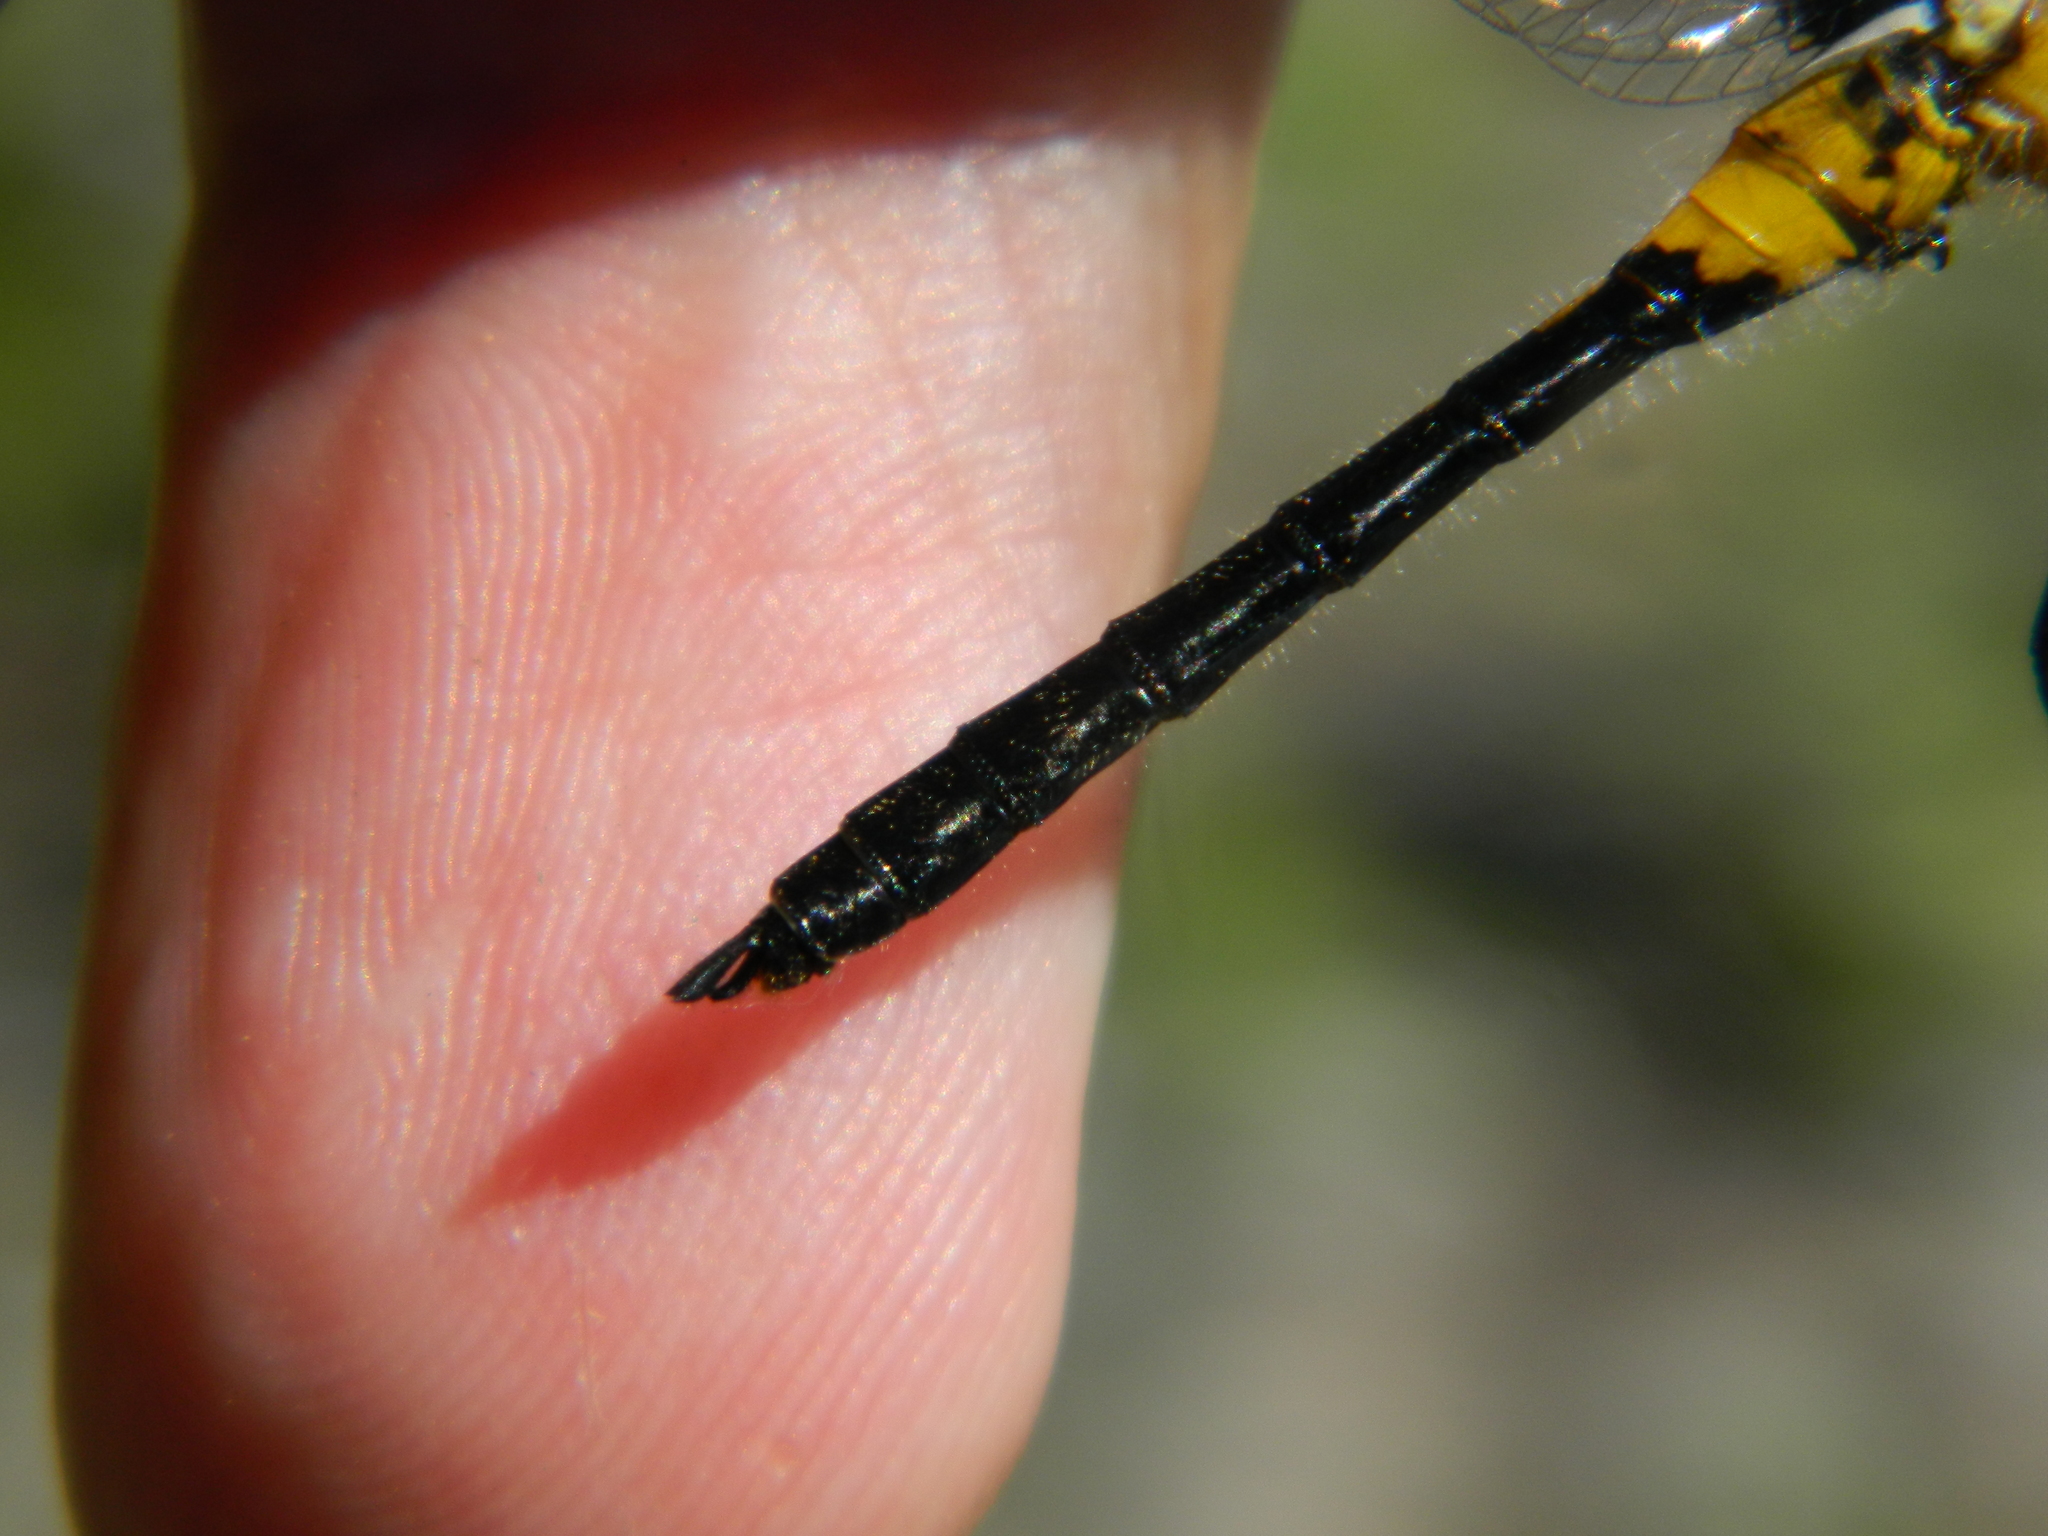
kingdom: Animalia
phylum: Arthropoda
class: Insecta
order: Odonata
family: Libellulidae
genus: Leucorrhinia
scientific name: Leucorrhinia proxima
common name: Belted whiteface
